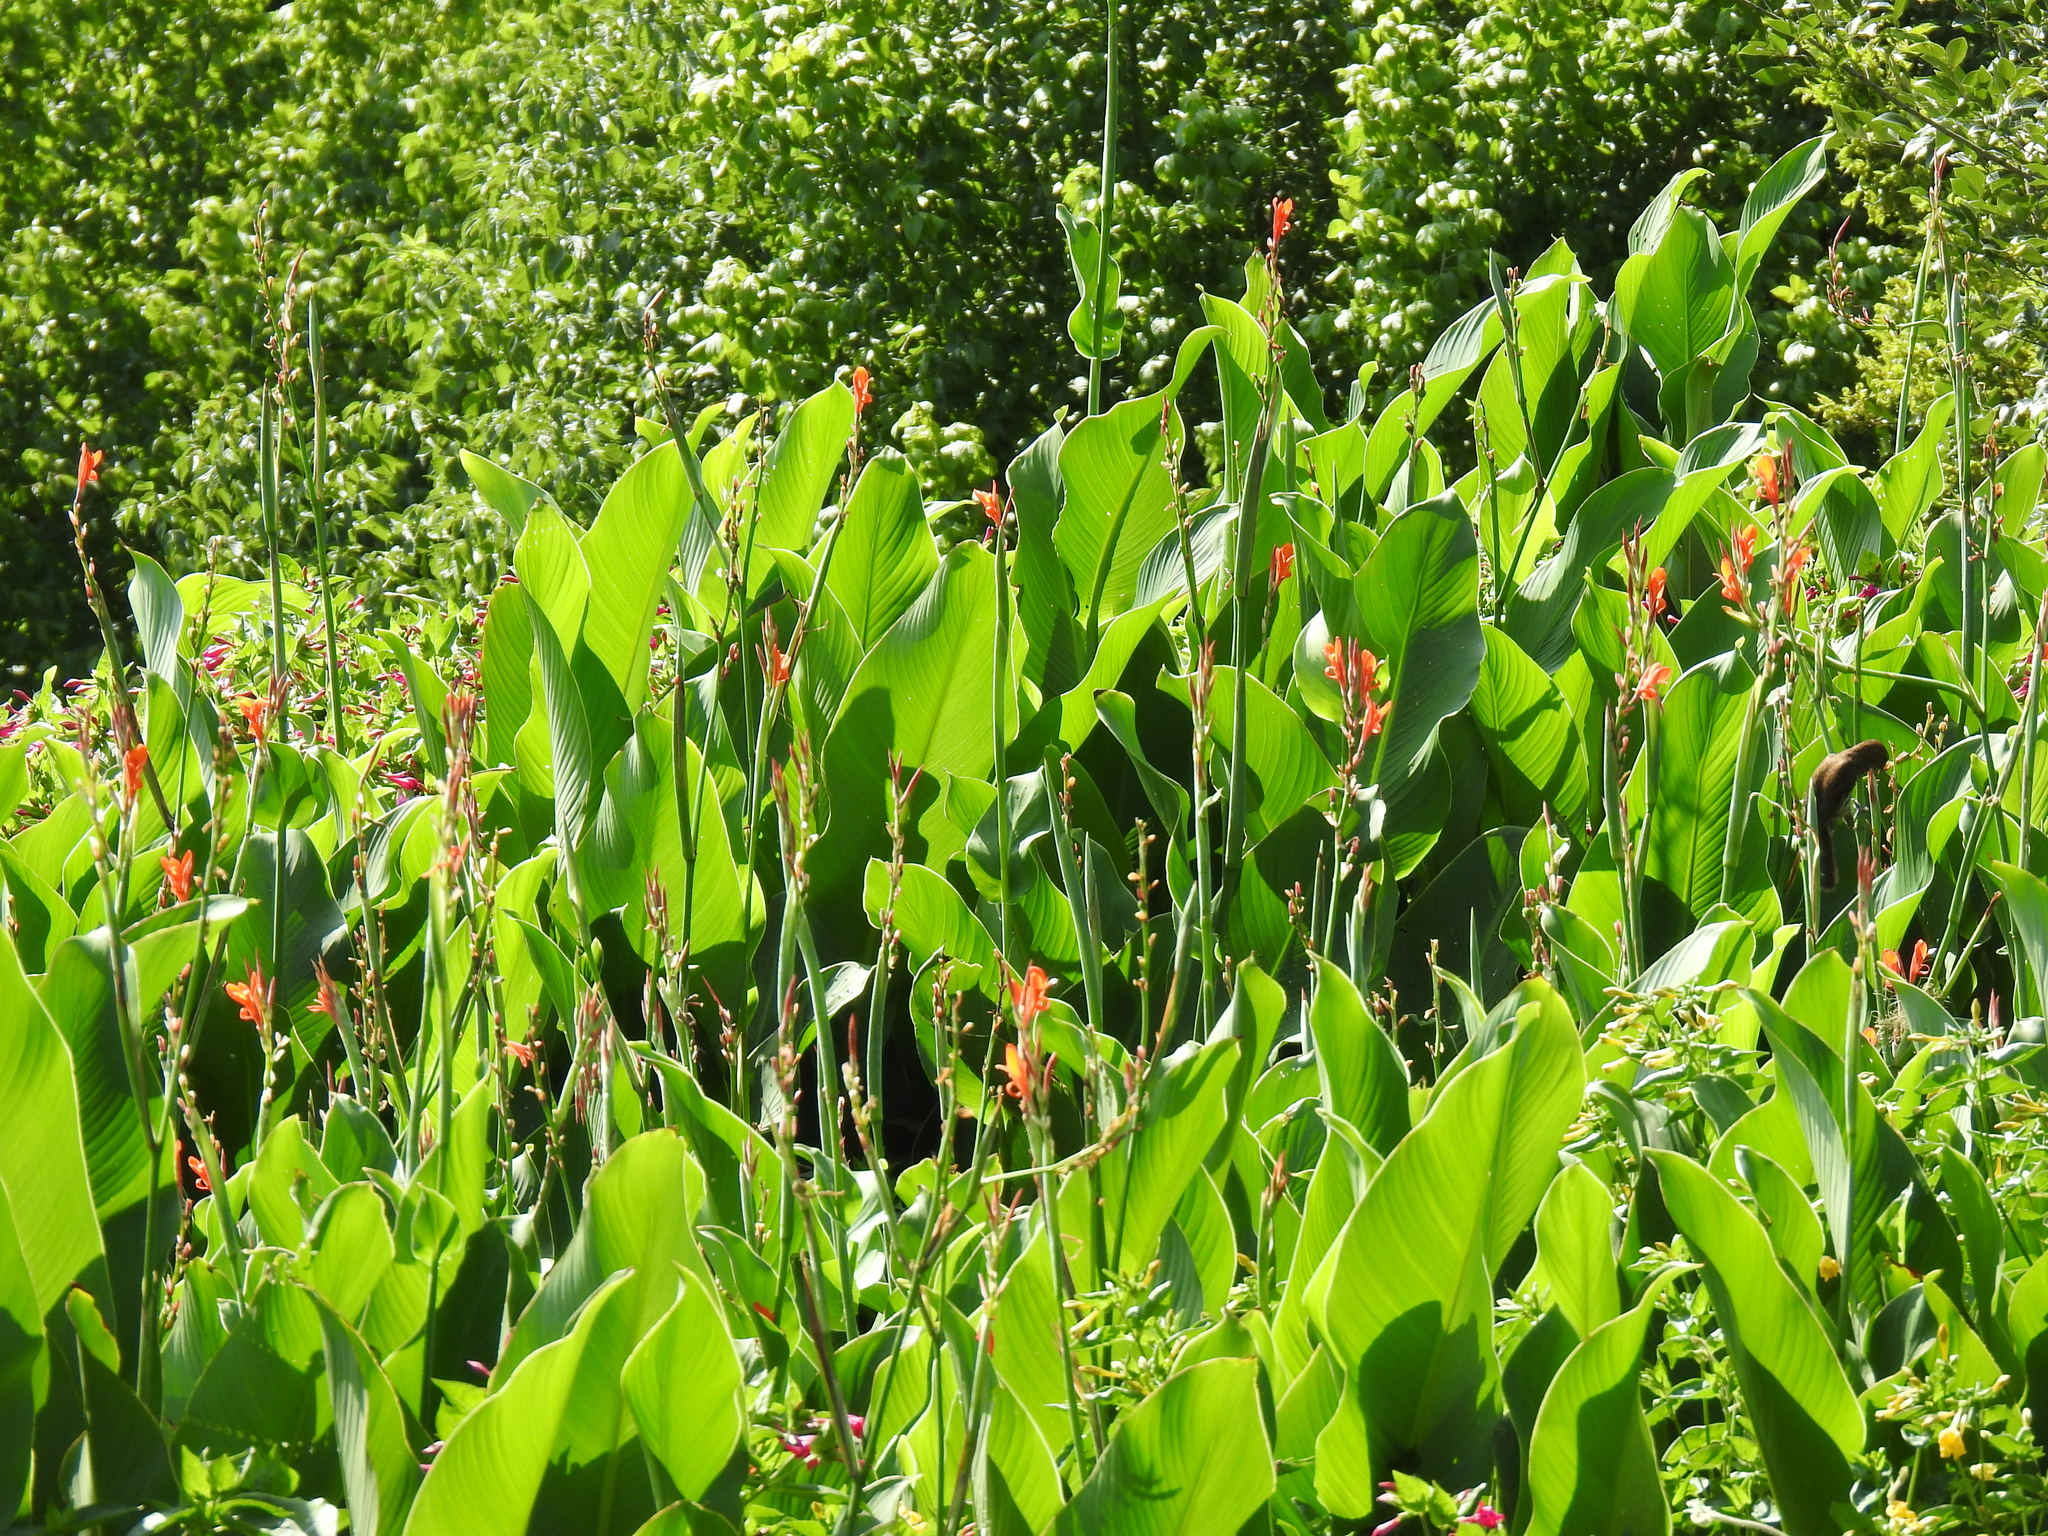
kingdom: Plantae
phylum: Tracheophyta
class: Liliopsida
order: Zingiberales
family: Cannaceae
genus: Canna
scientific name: Canna indica
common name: Indian shot
